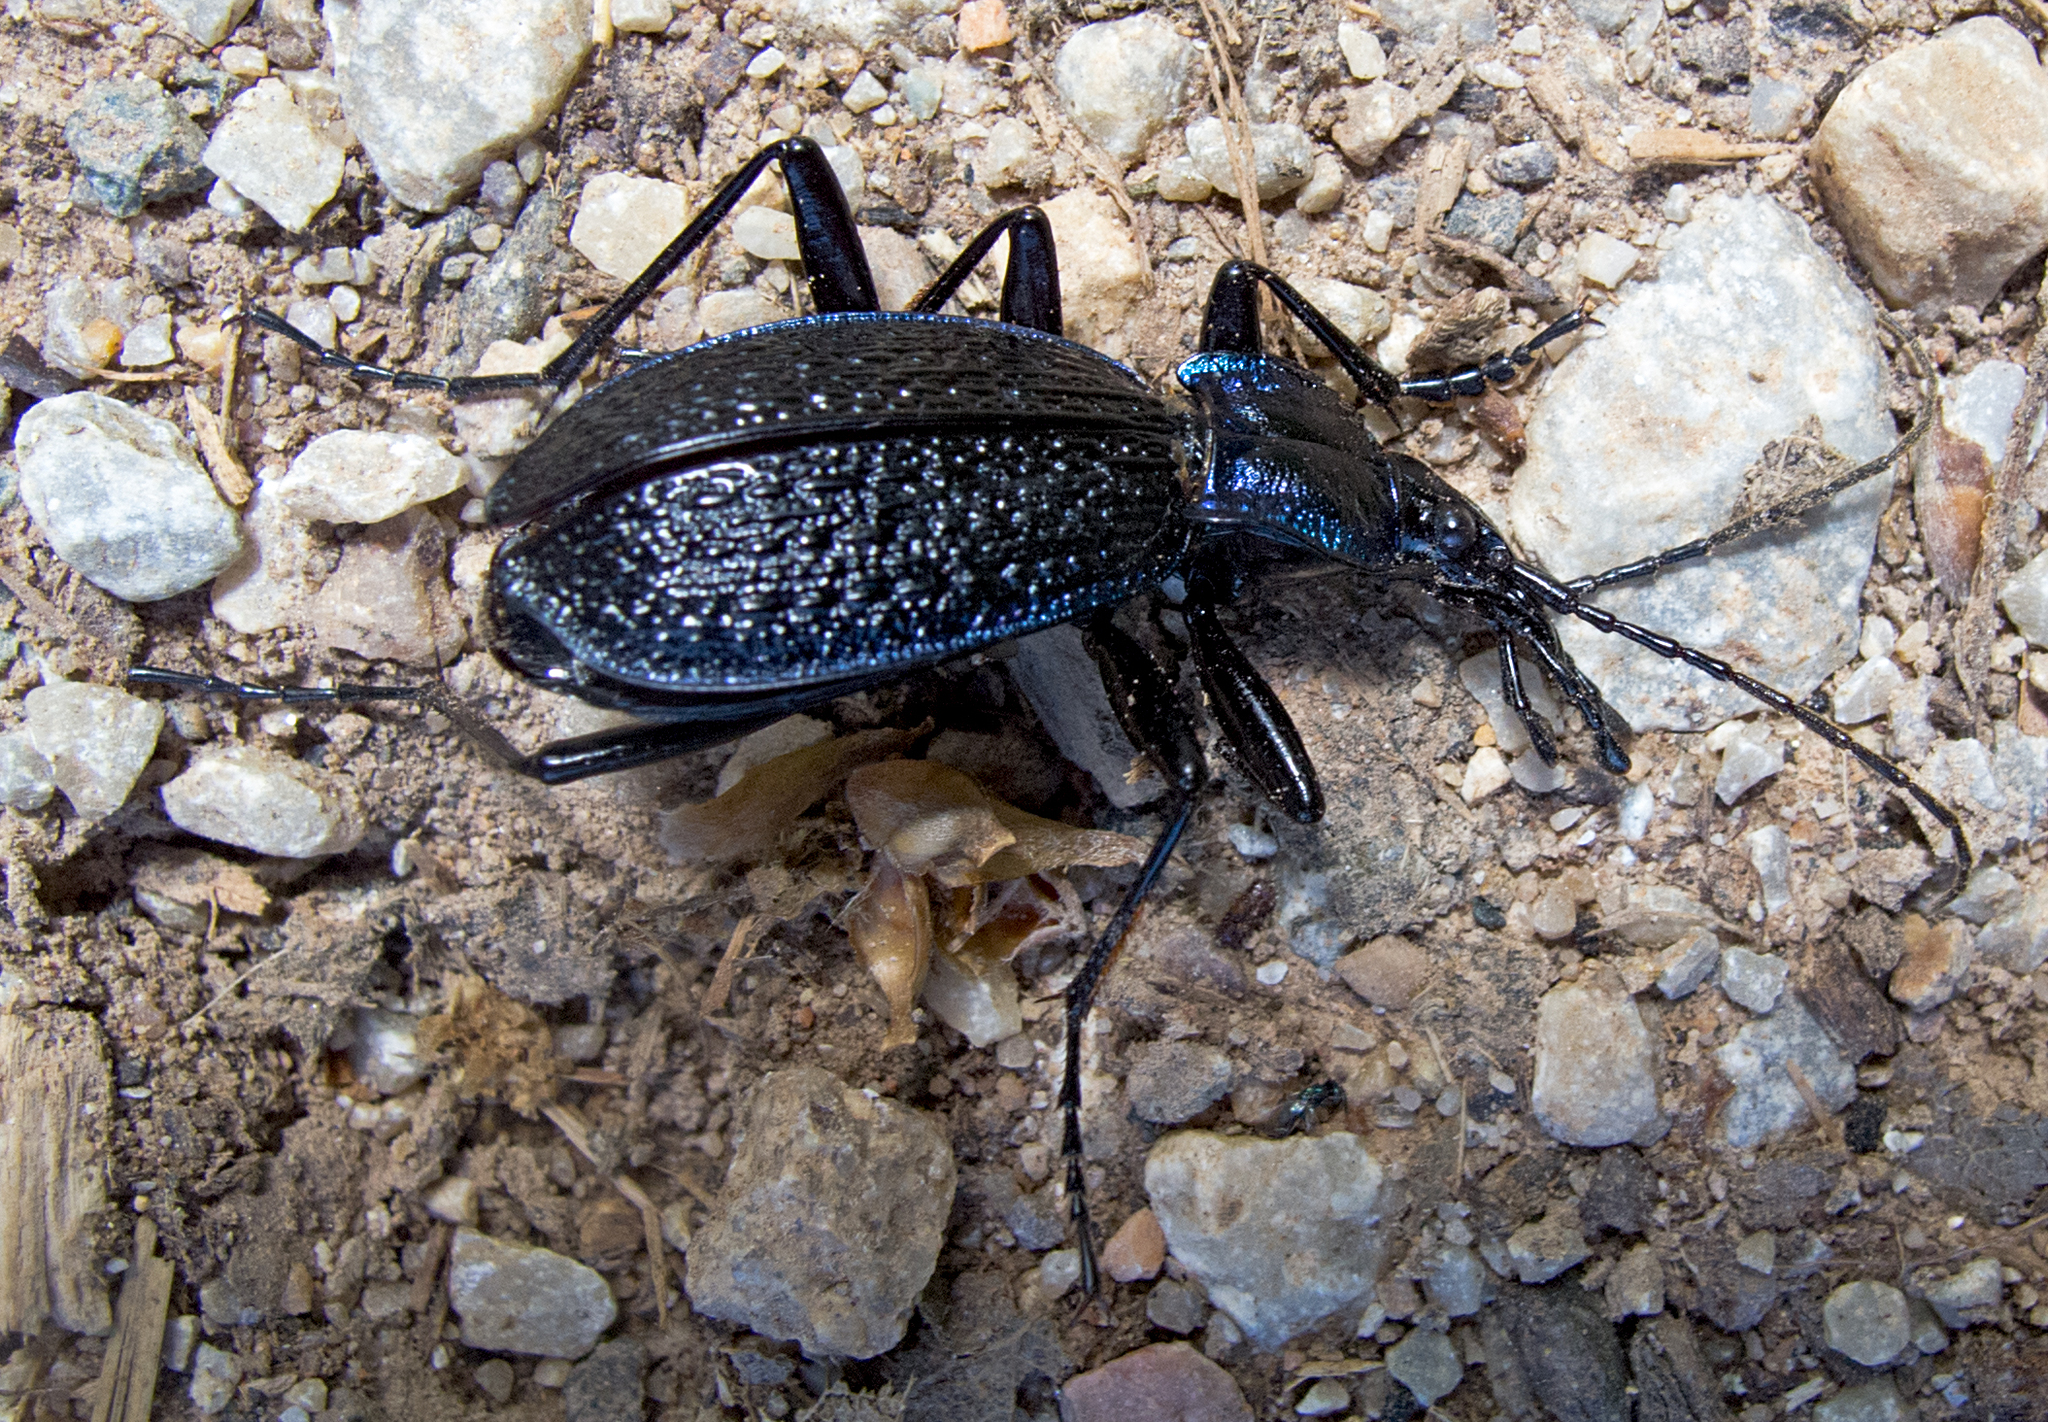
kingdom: Animalia
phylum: Arthropoda
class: Insecta
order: Coleoptera
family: Carabidae
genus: Carabus
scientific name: Carabus intricatus
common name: Blue ground beetle
